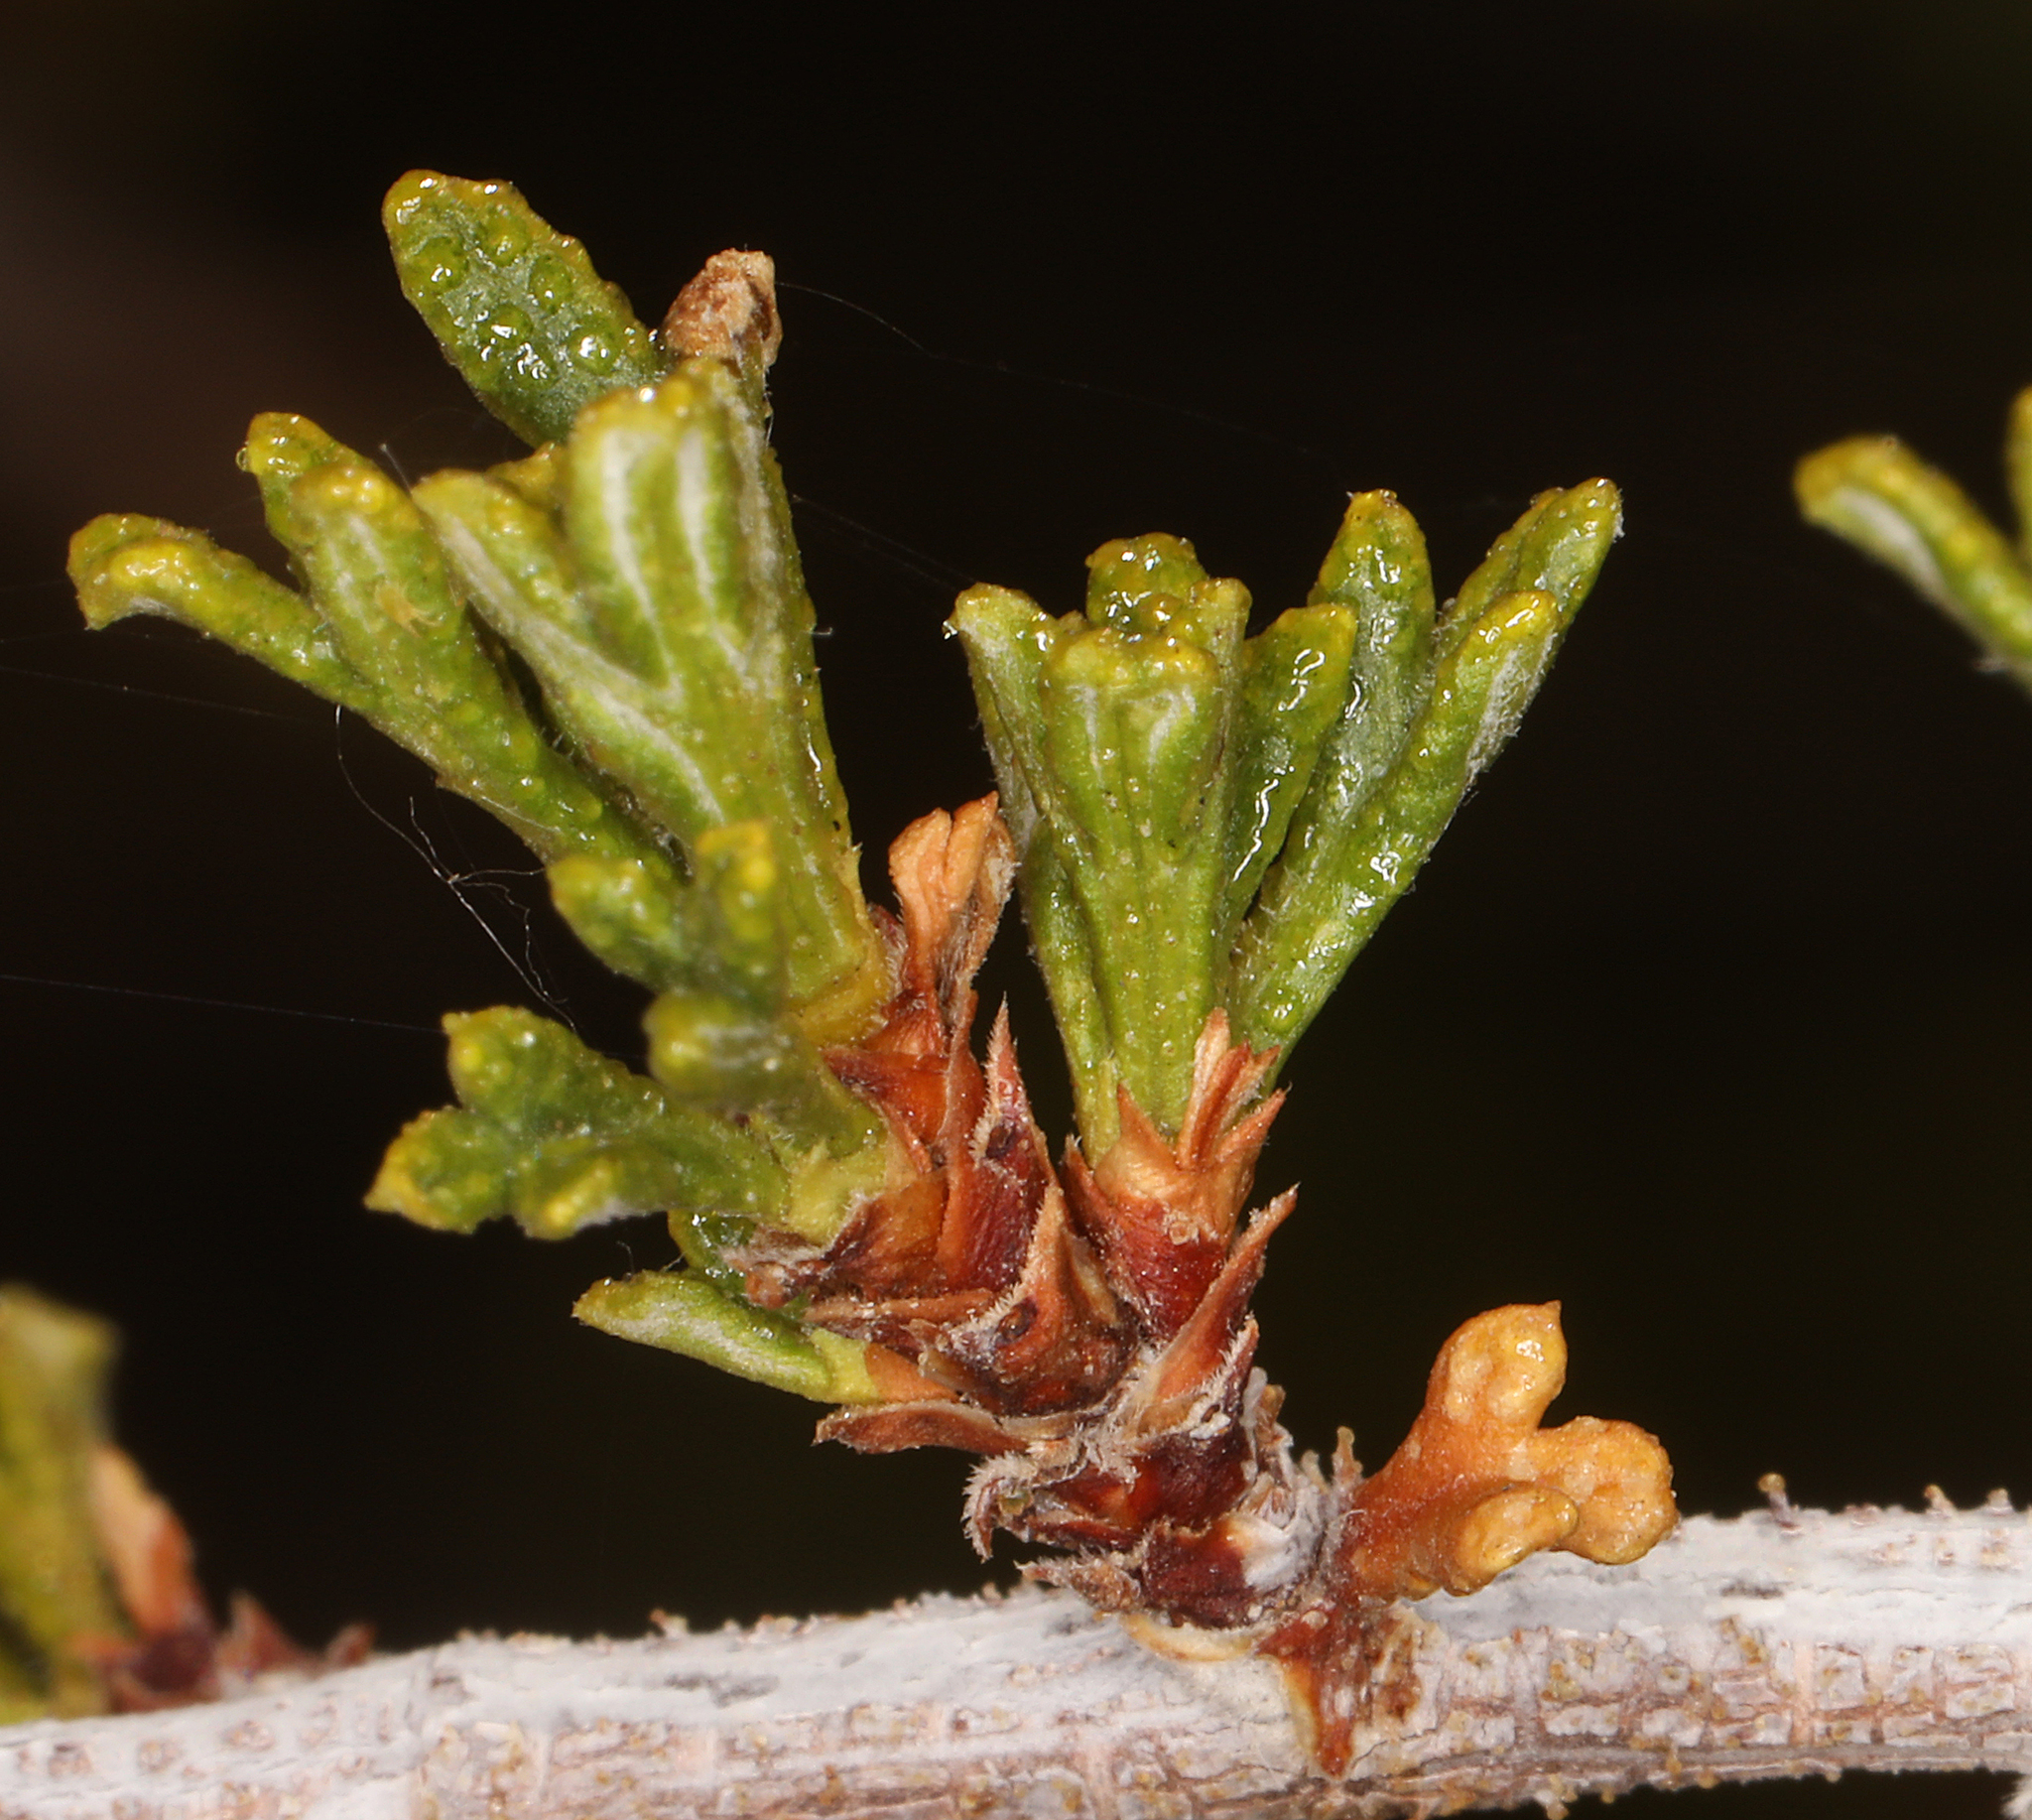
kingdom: Plantae
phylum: Tracheophyta
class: Magnoliopsida
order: Rosales
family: Rosaceae
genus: Purshia
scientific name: Purshia glandulosa
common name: Desert bitterbrush
